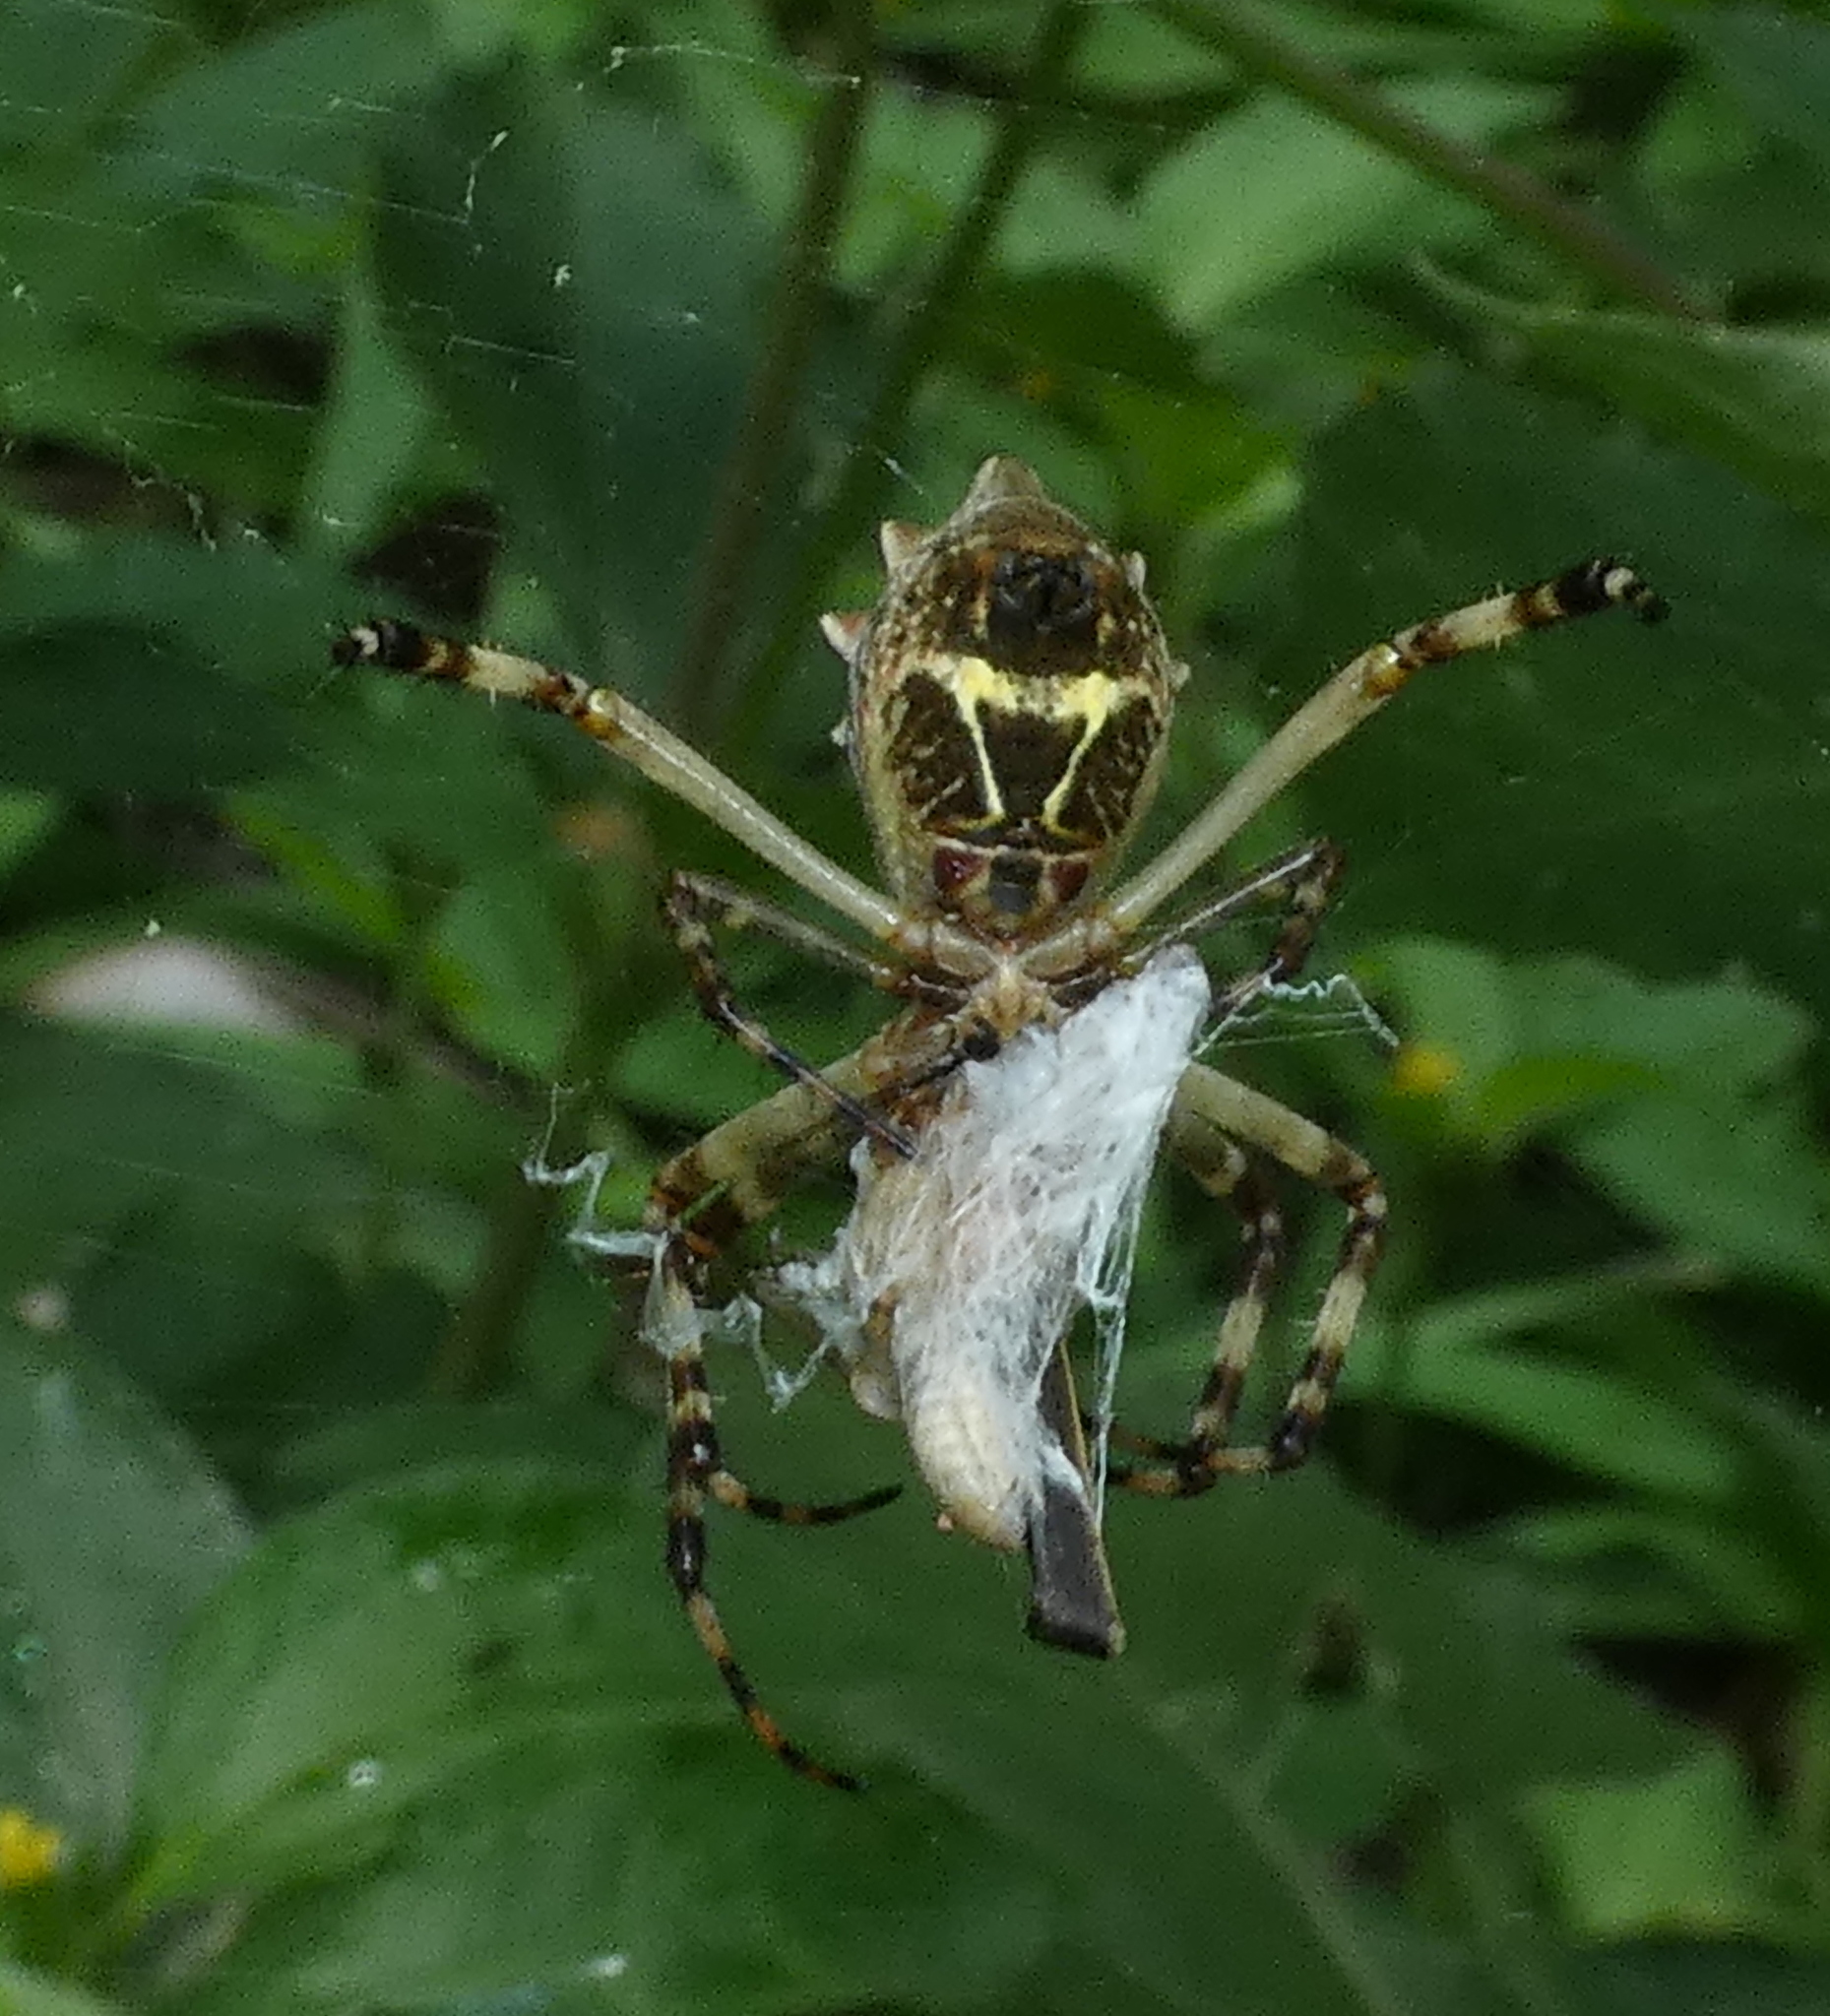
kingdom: Animalia
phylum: Arthropoda
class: Arachnida
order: Araneae
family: Araneidae
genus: Argiope
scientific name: Argiope argentata
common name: Orb weavers
